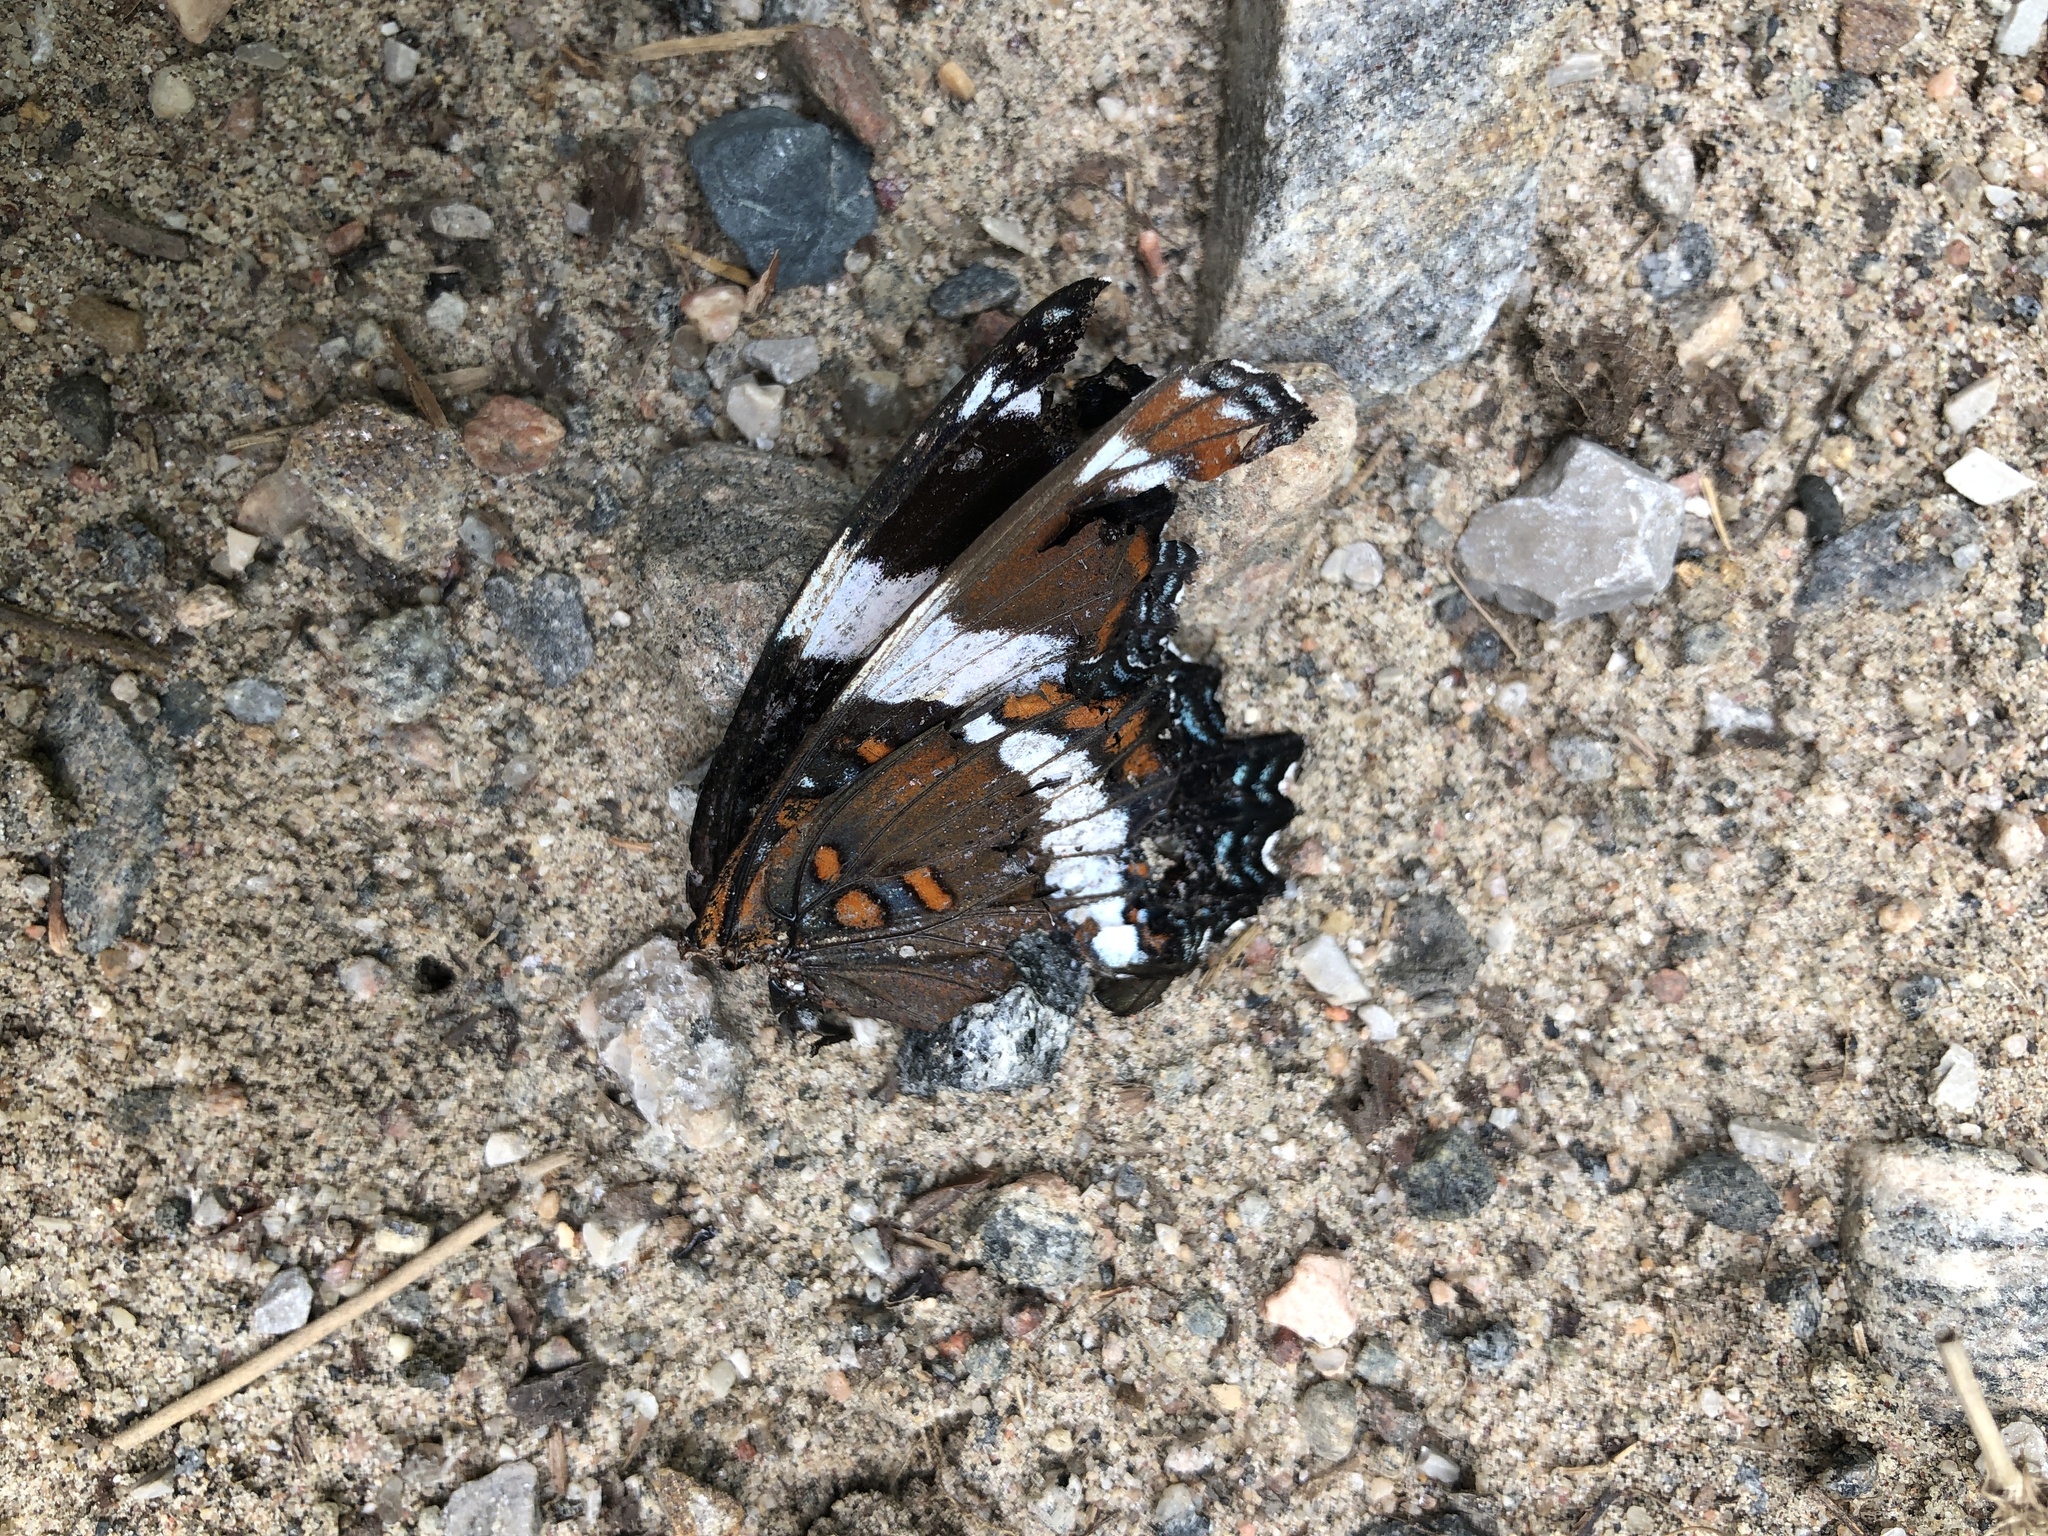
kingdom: Animalia
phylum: Arthropoda
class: Insecta
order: Lepidoptera
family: Nymphalidae
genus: Limenitis
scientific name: Limenitis arthemis
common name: Red-spotted admiral
